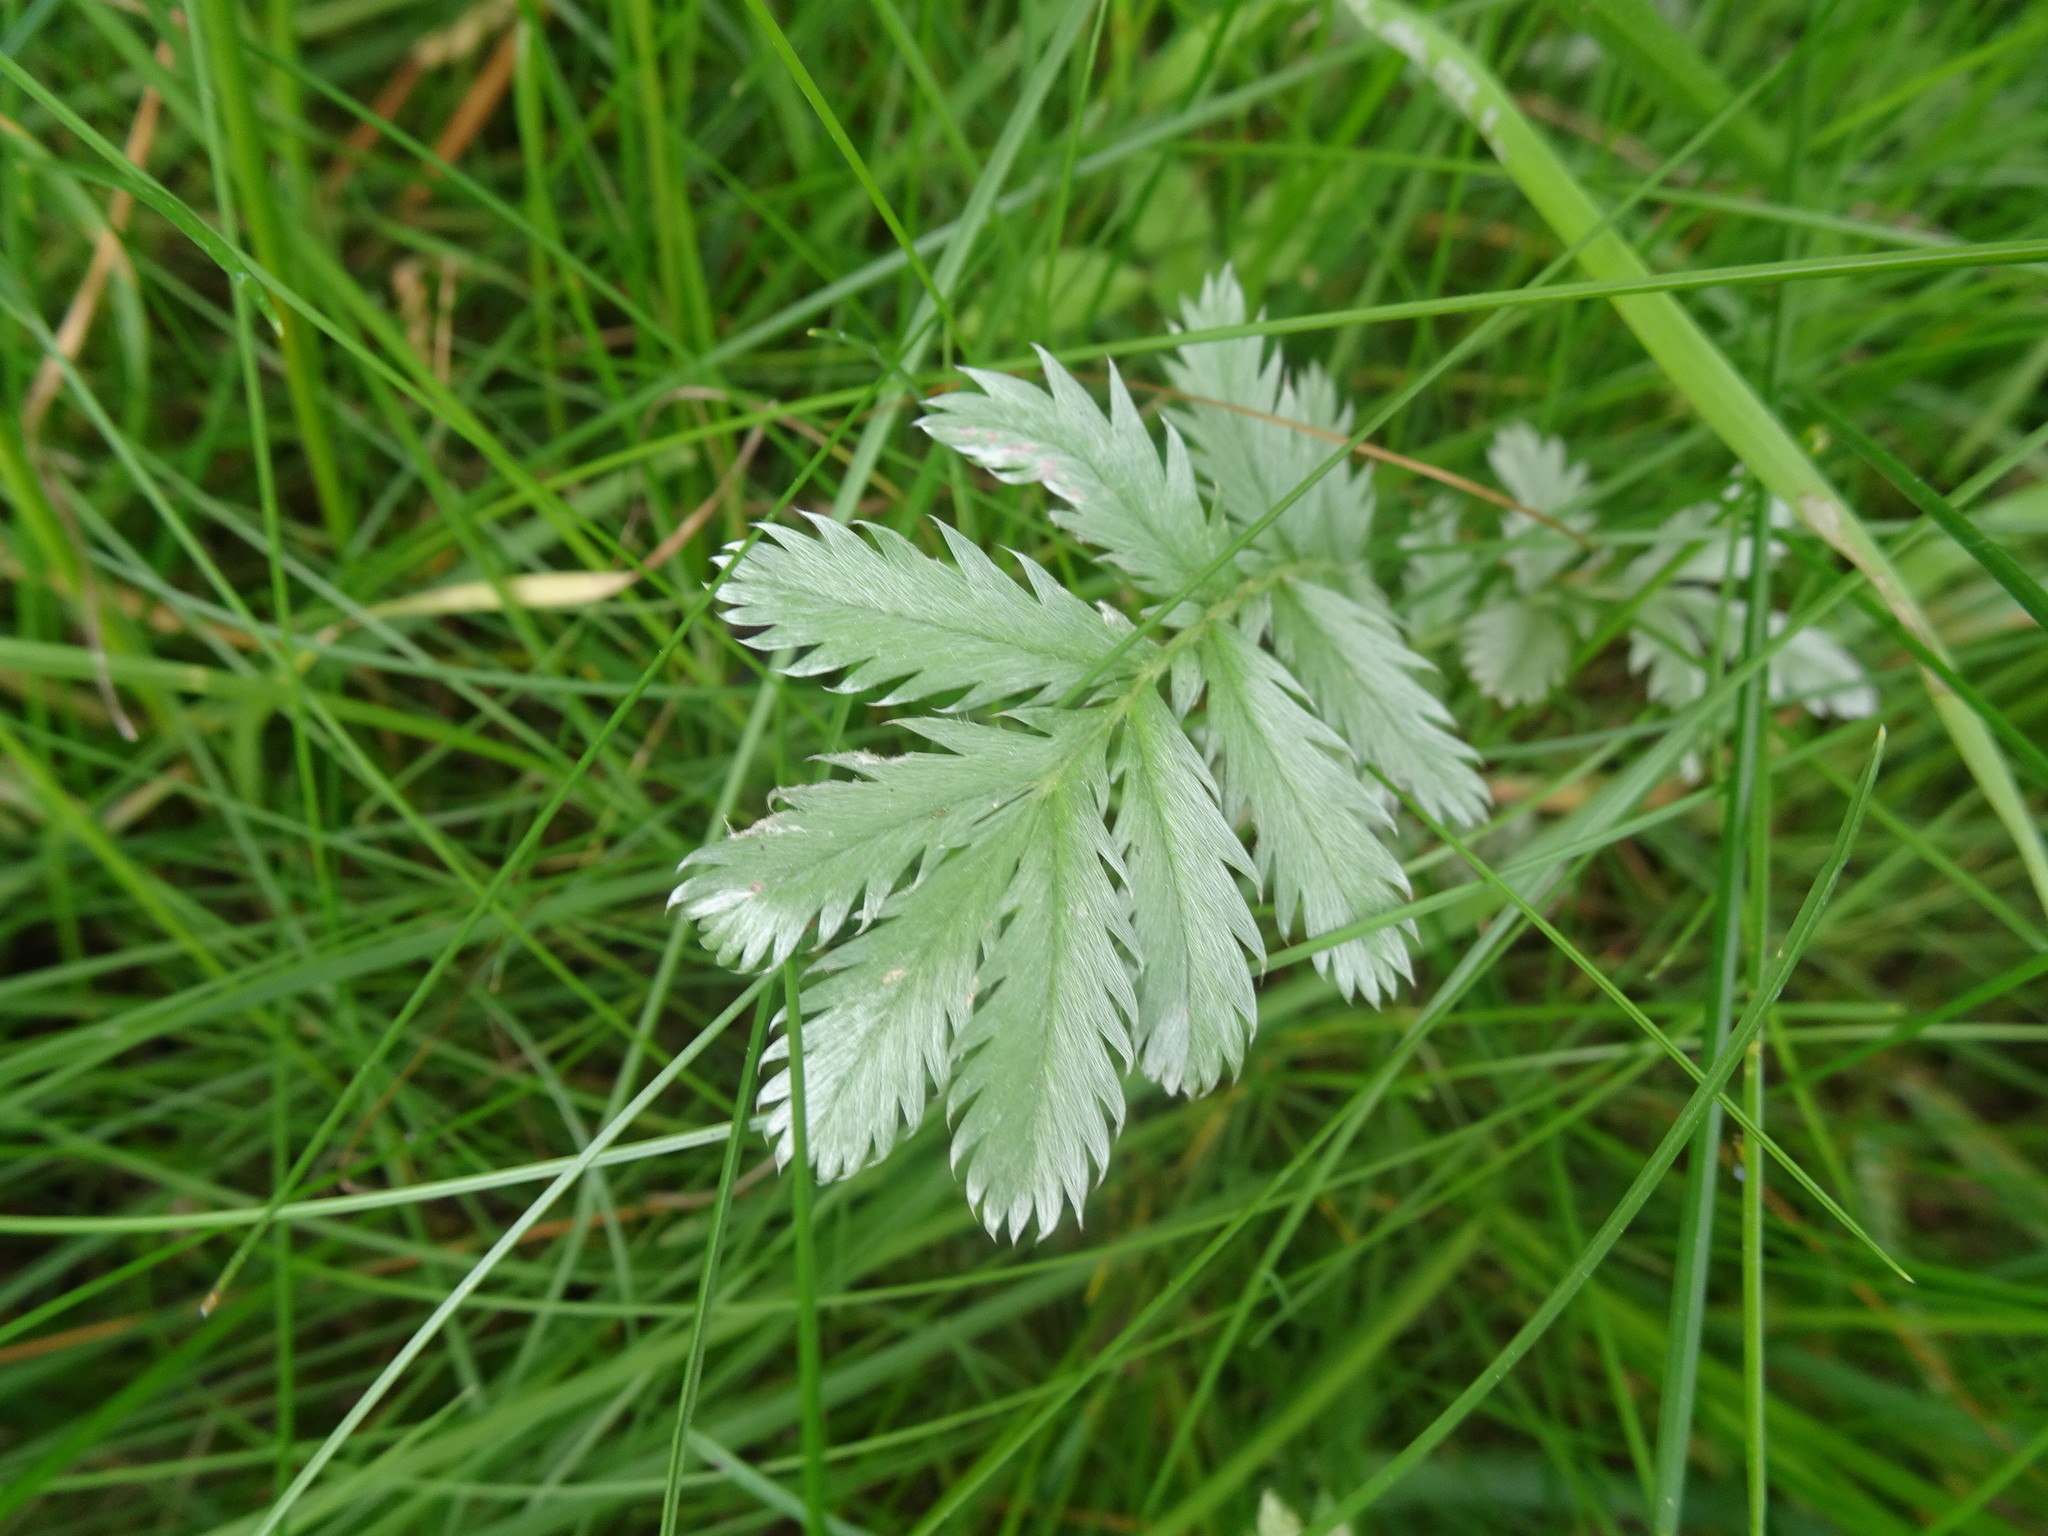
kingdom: Plantae
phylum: Tracheophyta
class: Magnoliopsida
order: Rosales
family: Rosaceae
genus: Argentina
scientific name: Argentina anserina
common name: Common silverweed
